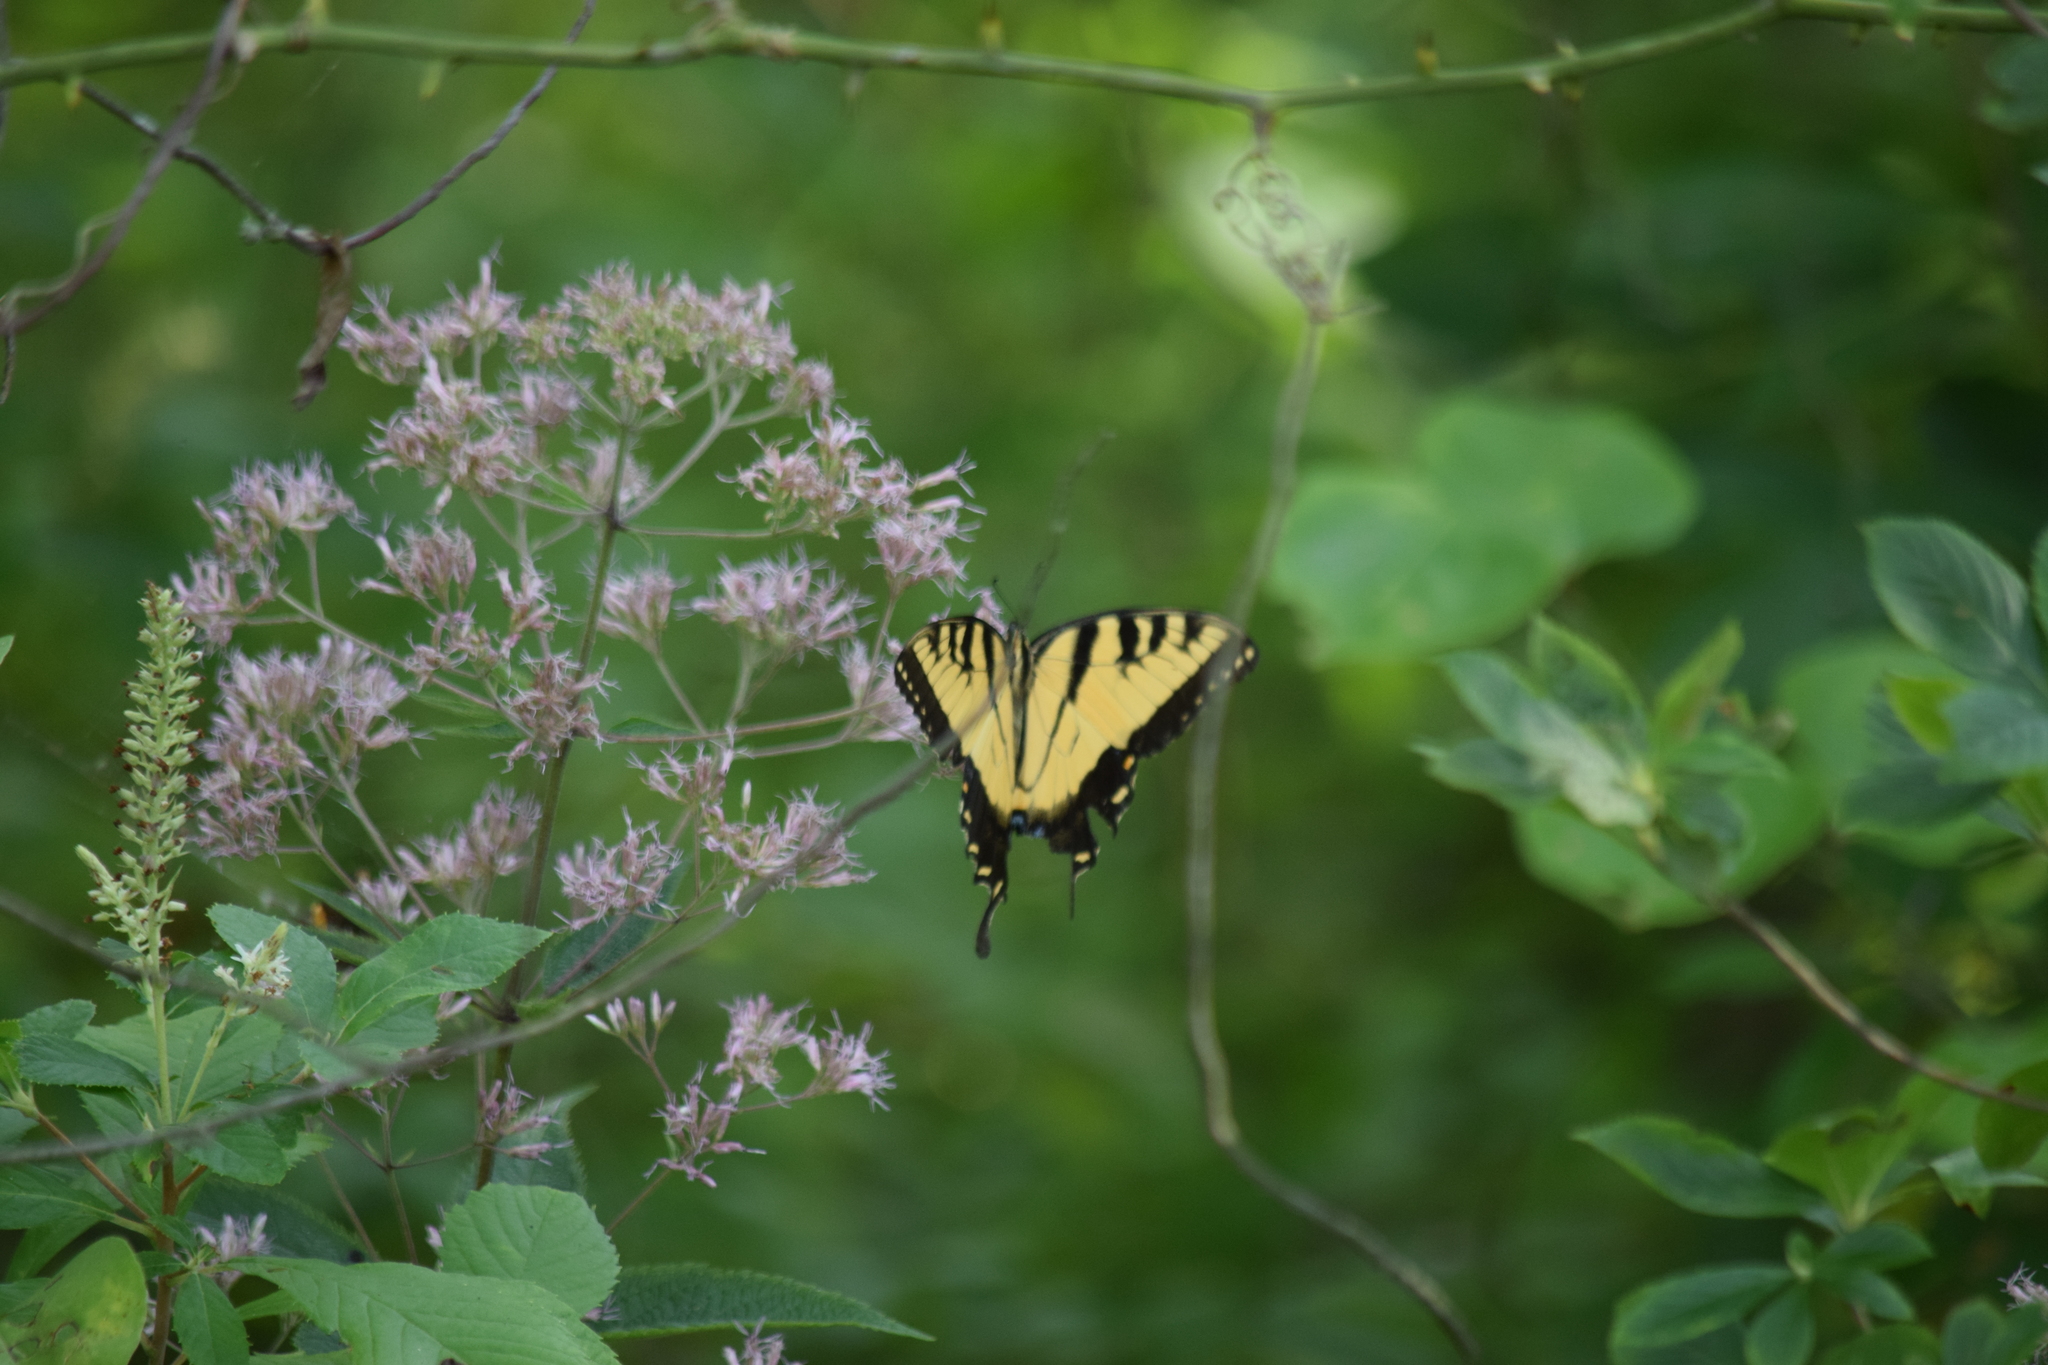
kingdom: Animalia
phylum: Arthropoda
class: Insecta
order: Lepidoptera
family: Papilionidae
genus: Papilio
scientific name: Papilio glaucus
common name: Tiger swallowtail
